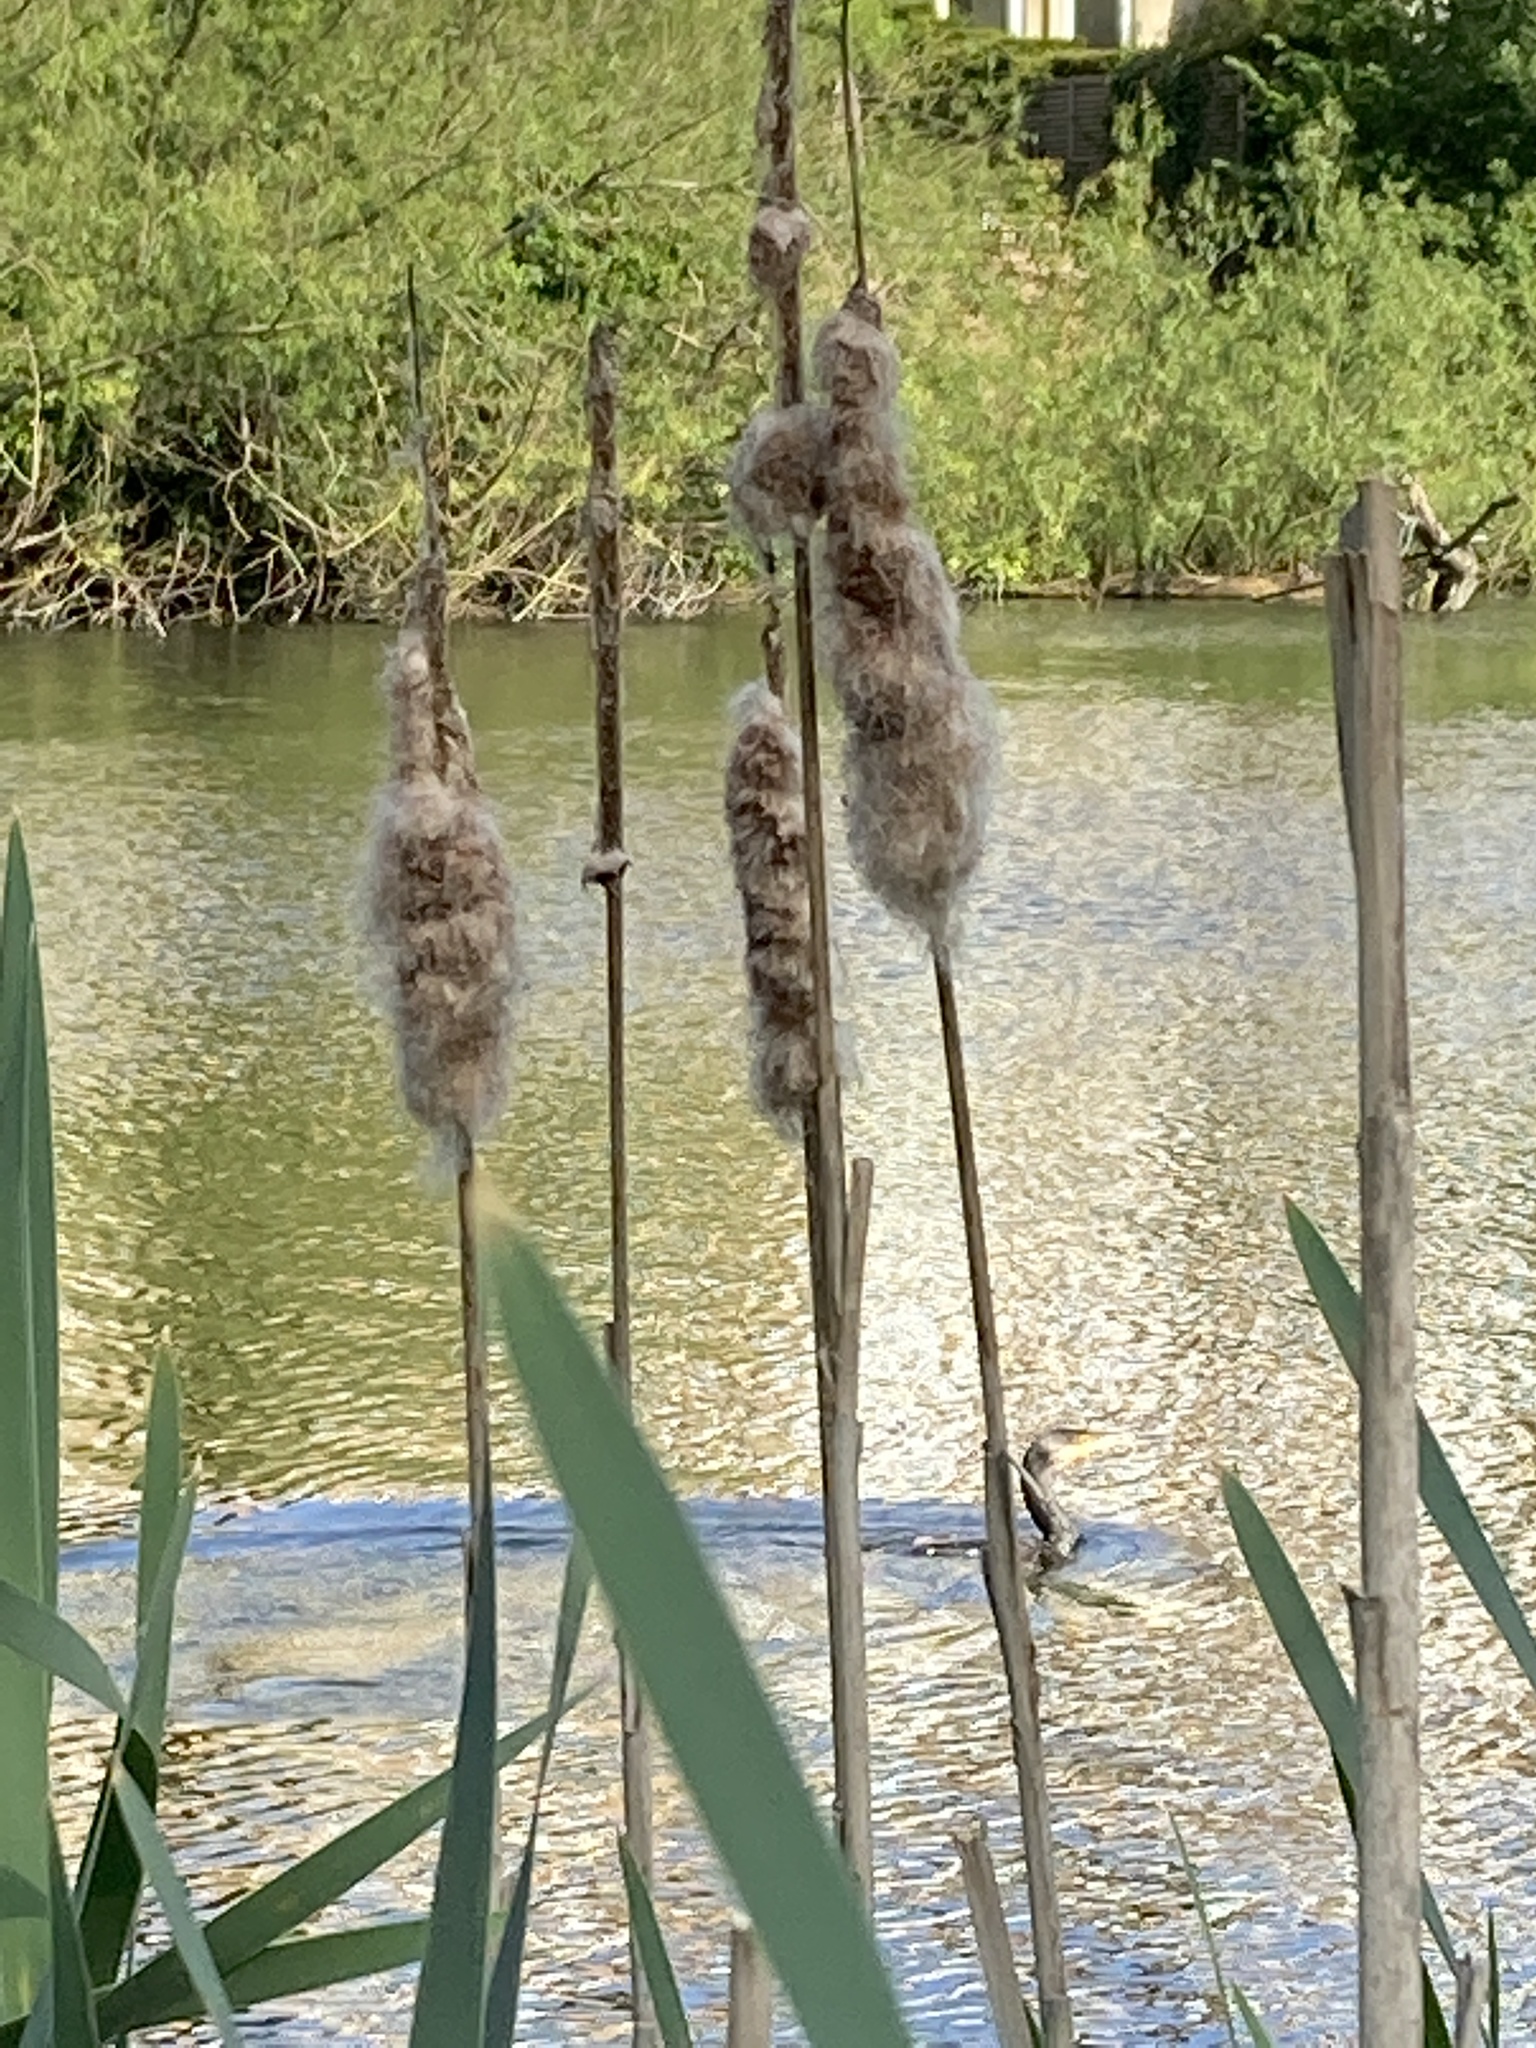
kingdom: Animalia
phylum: Chordata
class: Aves
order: Suliformes
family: Phalacrocoracidae
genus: Phalacrocorax
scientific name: Phalacrocorax carbo
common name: Great cormorant
